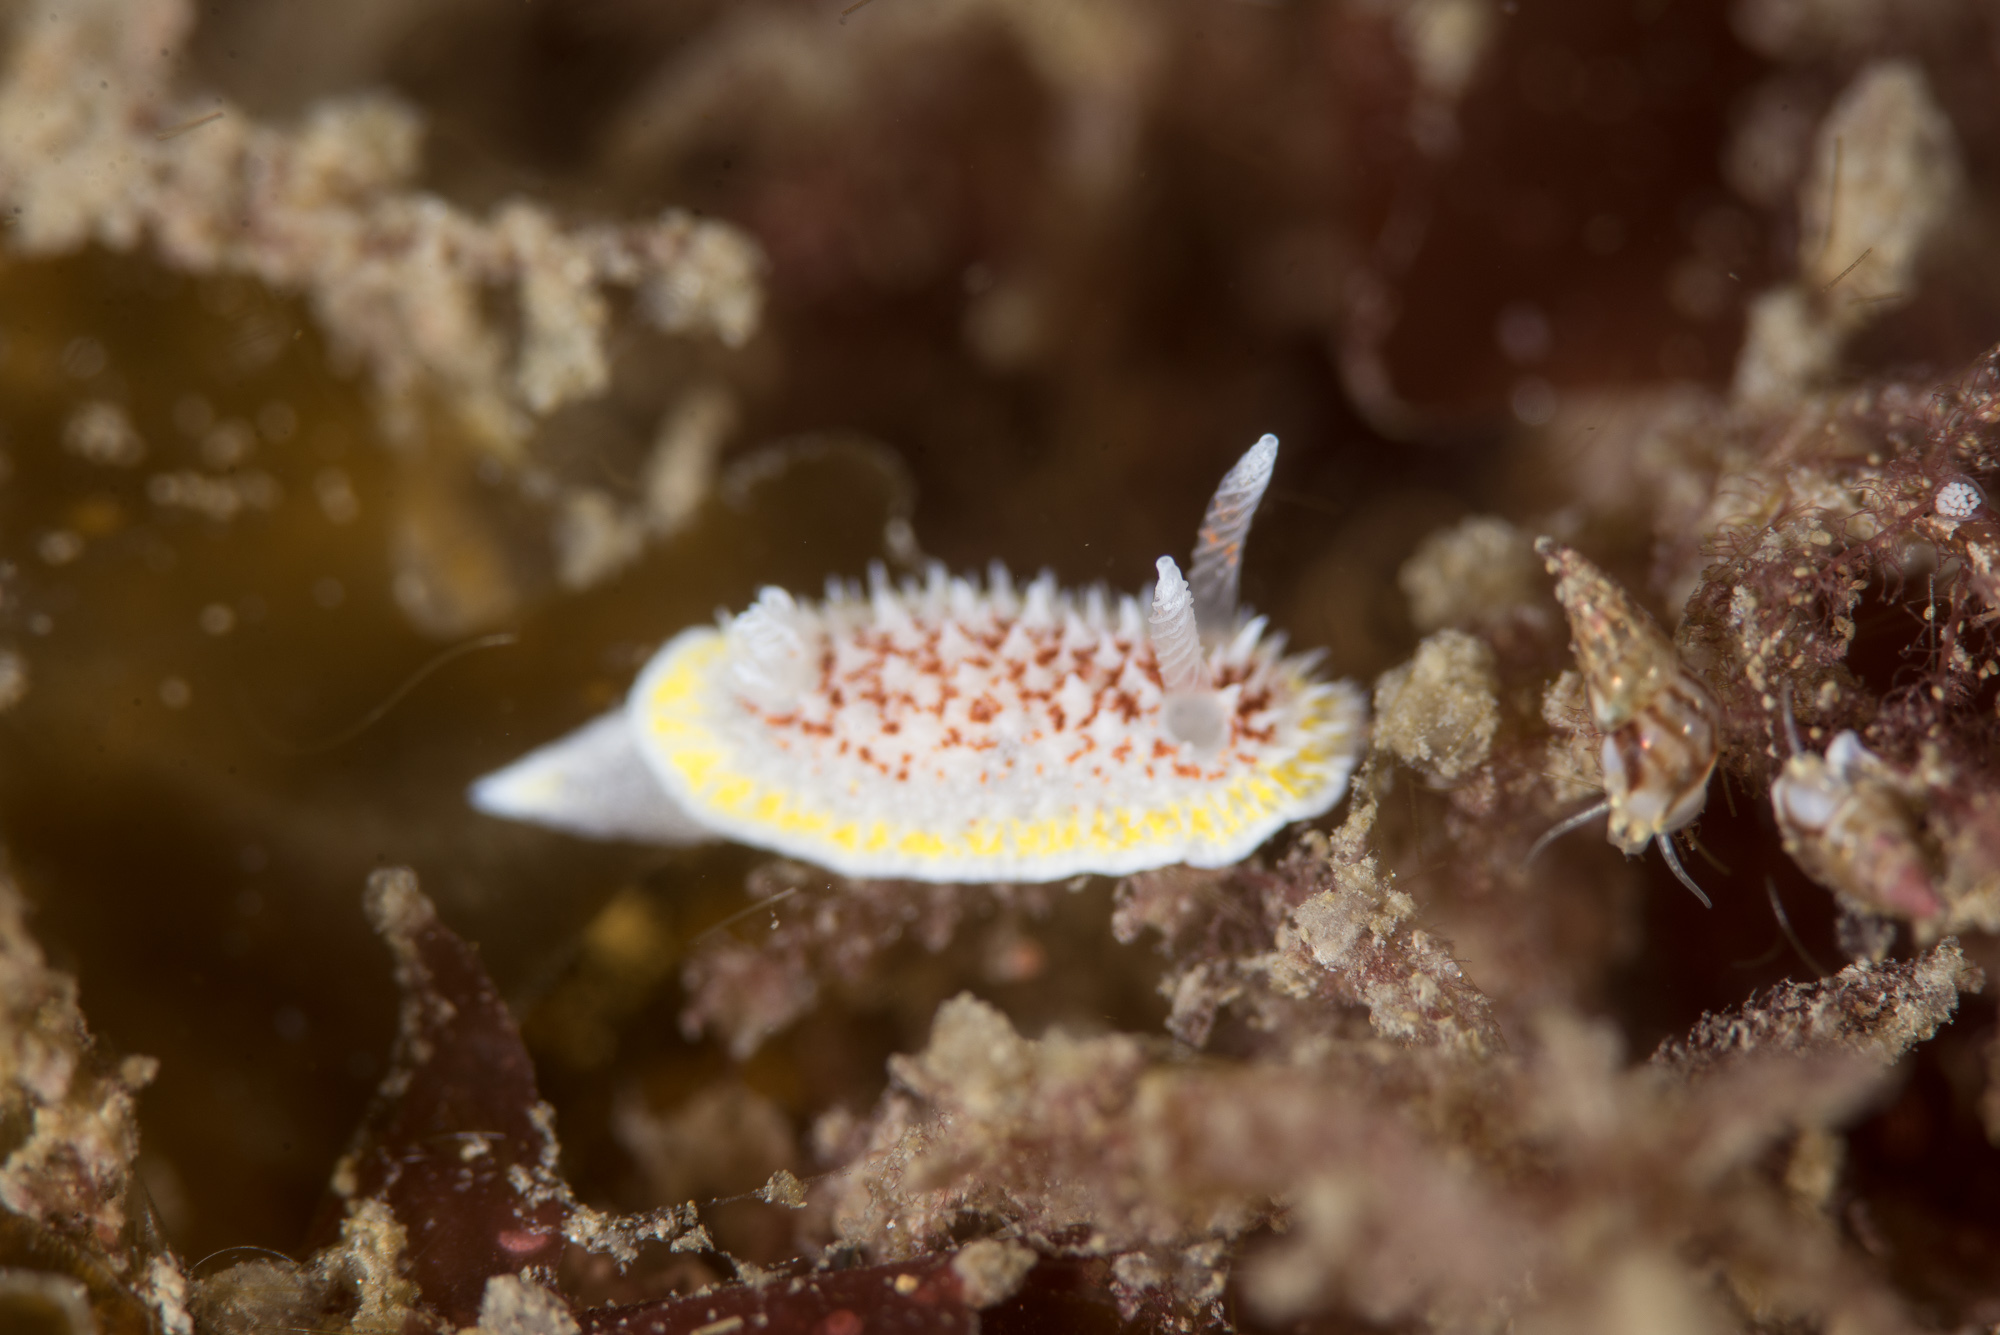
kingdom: Animalia
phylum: Mollusca
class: Gastropoda
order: Nudibranchia
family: Calycidorididae
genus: Diaphorodoris
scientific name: Diaphorodoris luteocincta
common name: Fried egg nudibranch
